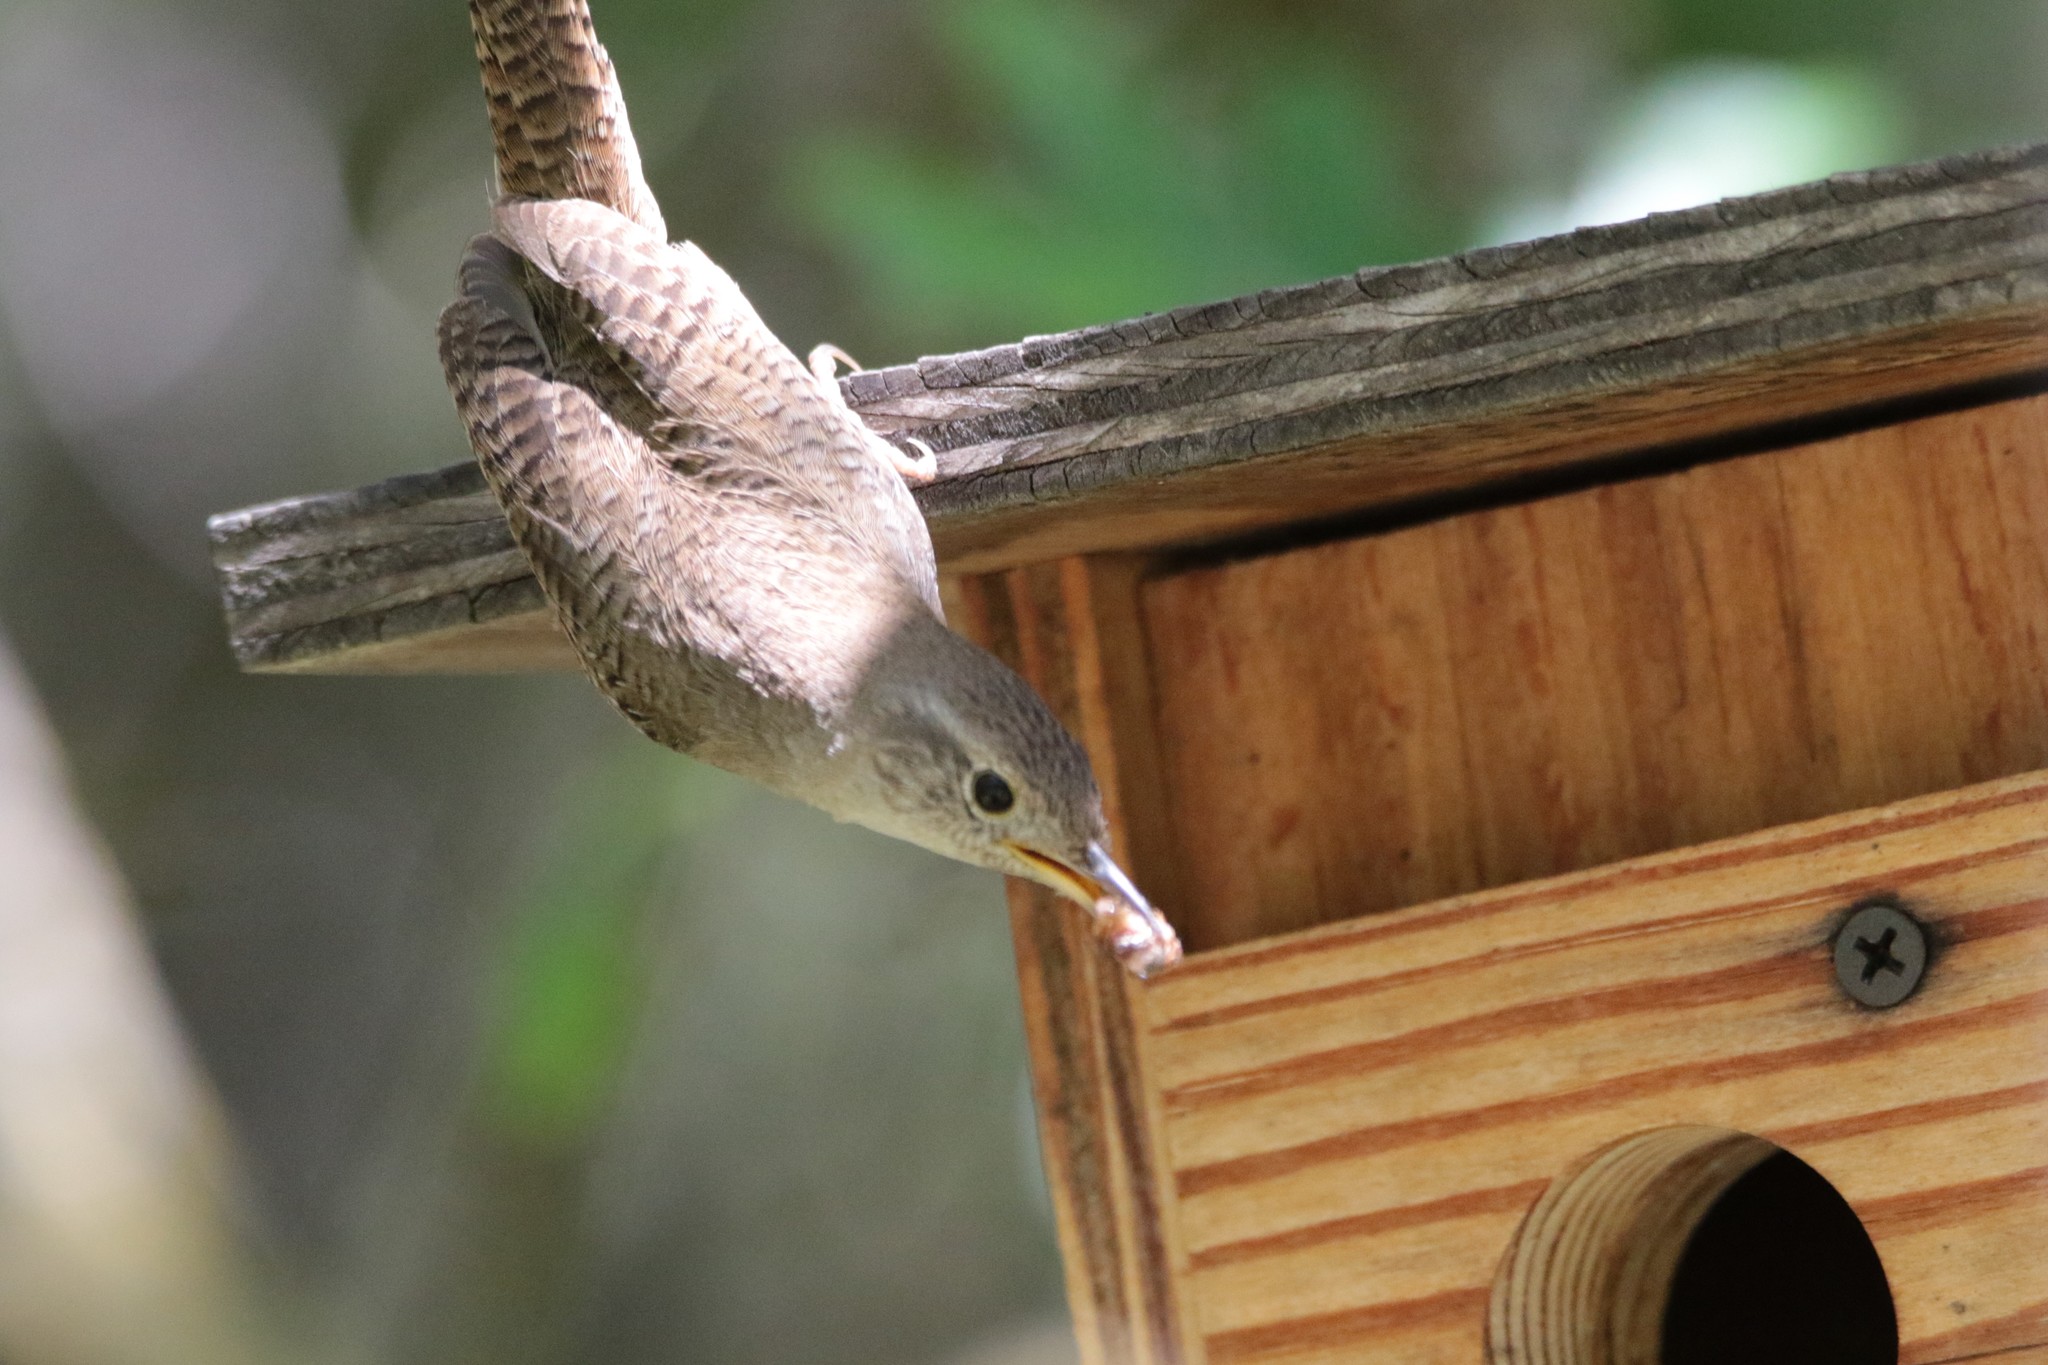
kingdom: Animalia
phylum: Chordata
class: Aves
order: Passeriformes
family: Troglodytidae
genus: Troglodytes
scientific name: Troglodytes aedon
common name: House wren
